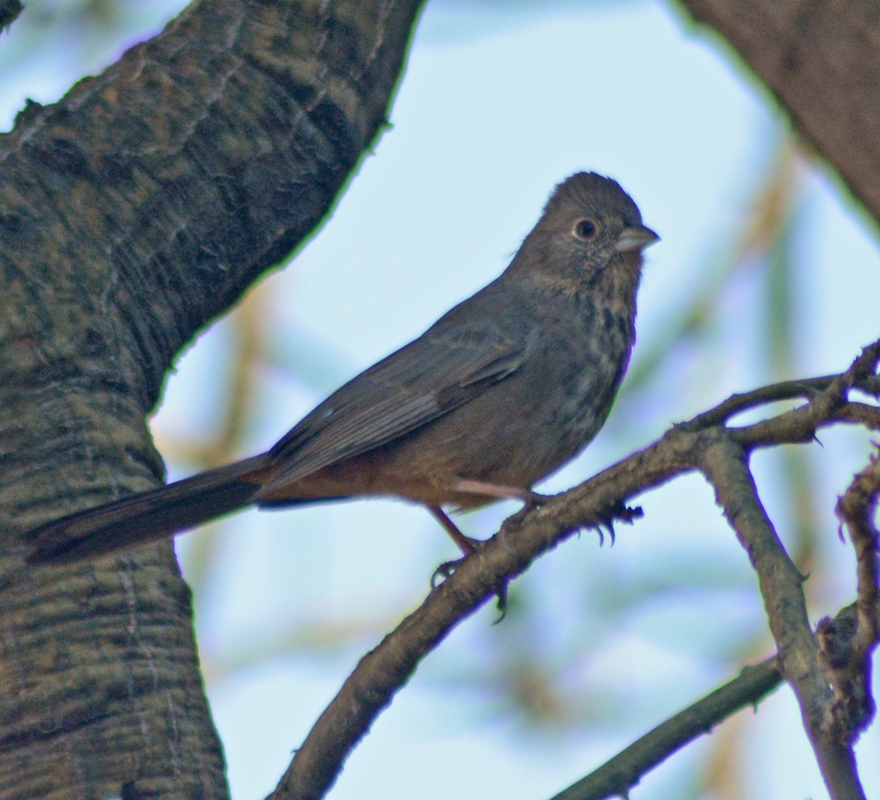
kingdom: Animalia
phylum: Chordata
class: Aves
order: Passeriformes
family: Passerellidae
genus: Melozone
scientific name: Melozone fusca
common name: Canyon towhee
